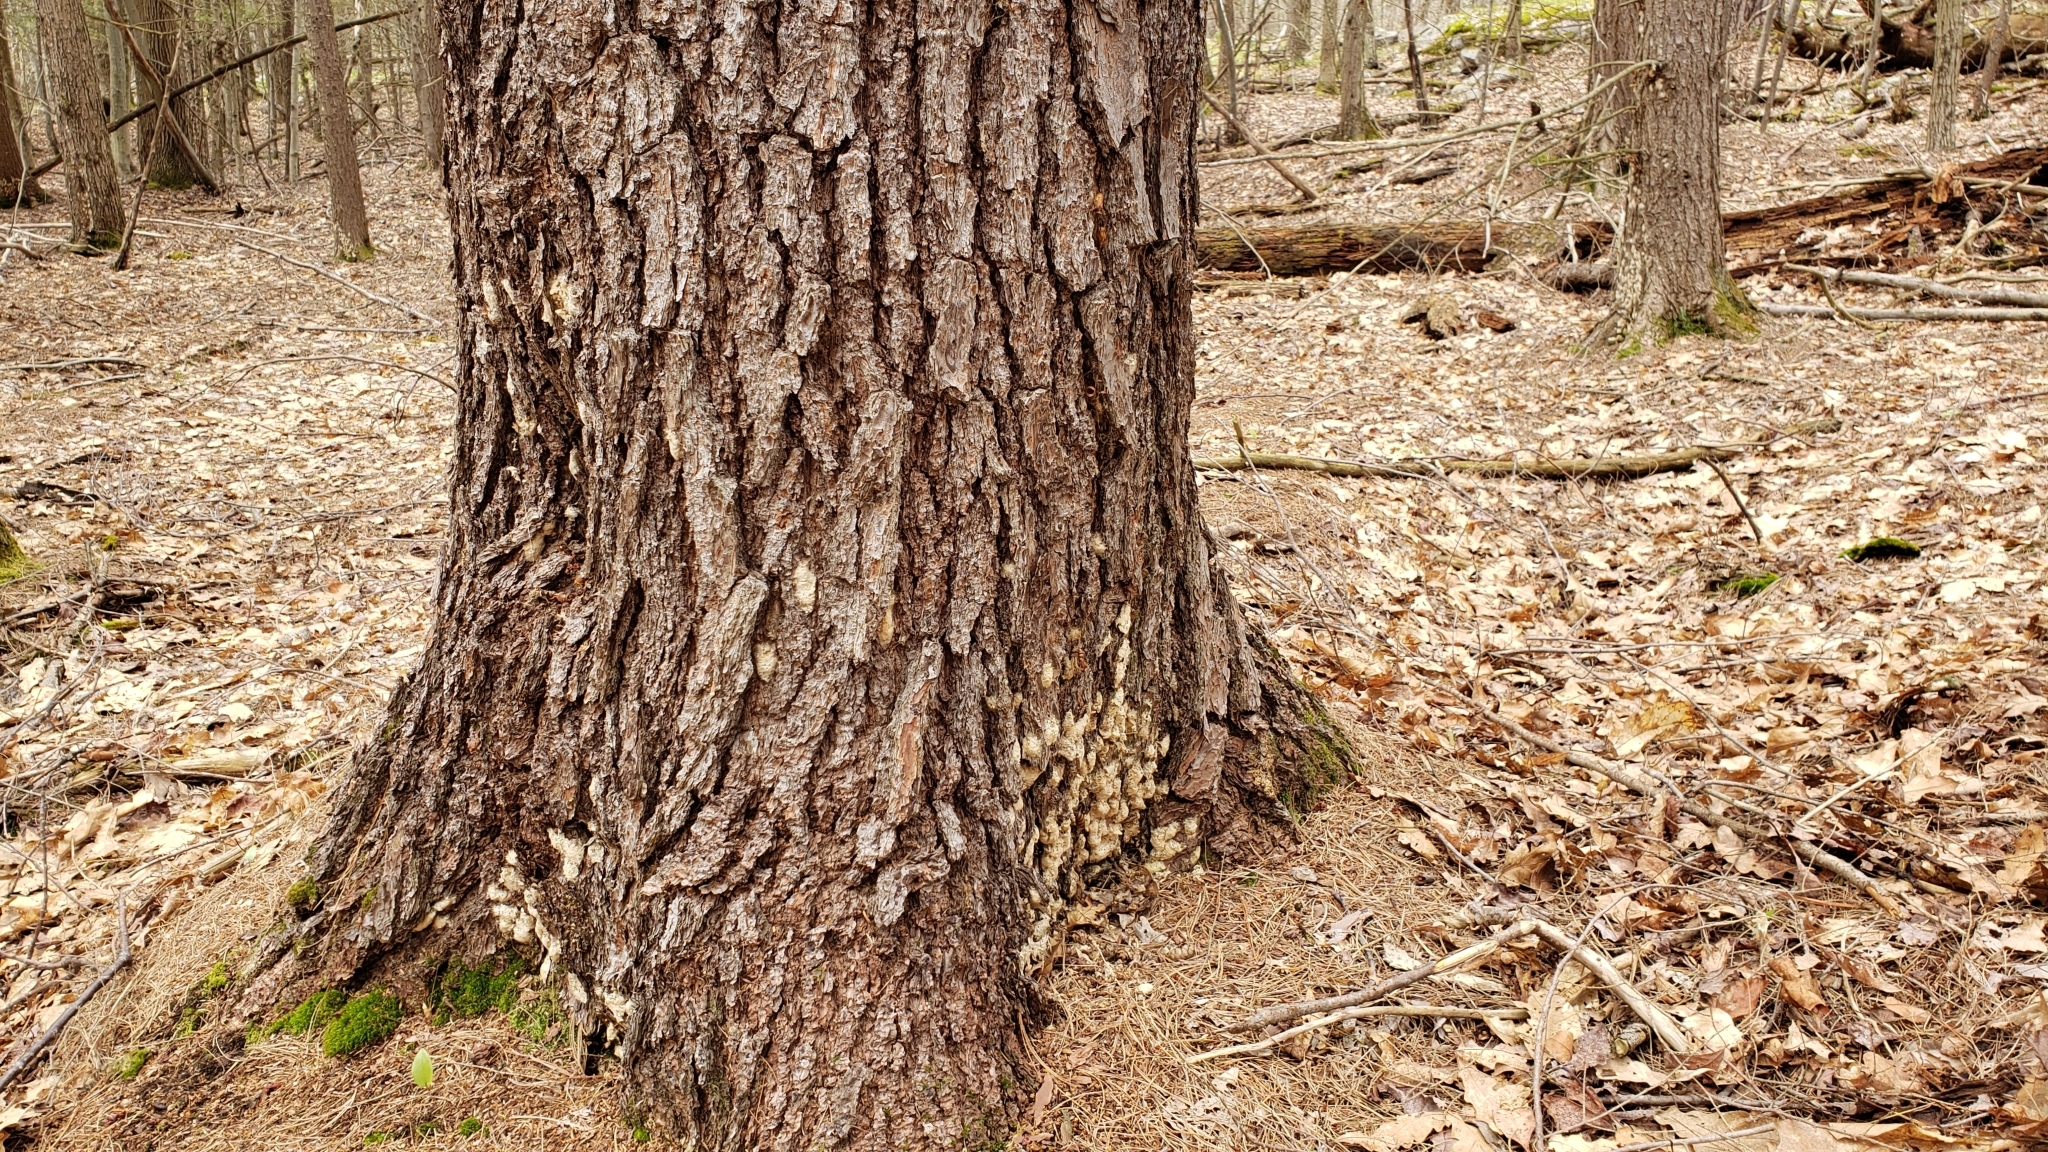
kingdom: Animalia
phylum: Arthropoda
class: Insecta
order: Lepidoptera
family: Erebidae
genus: Lymantria
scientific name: Lymantria dispar
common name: Gypsy moth
